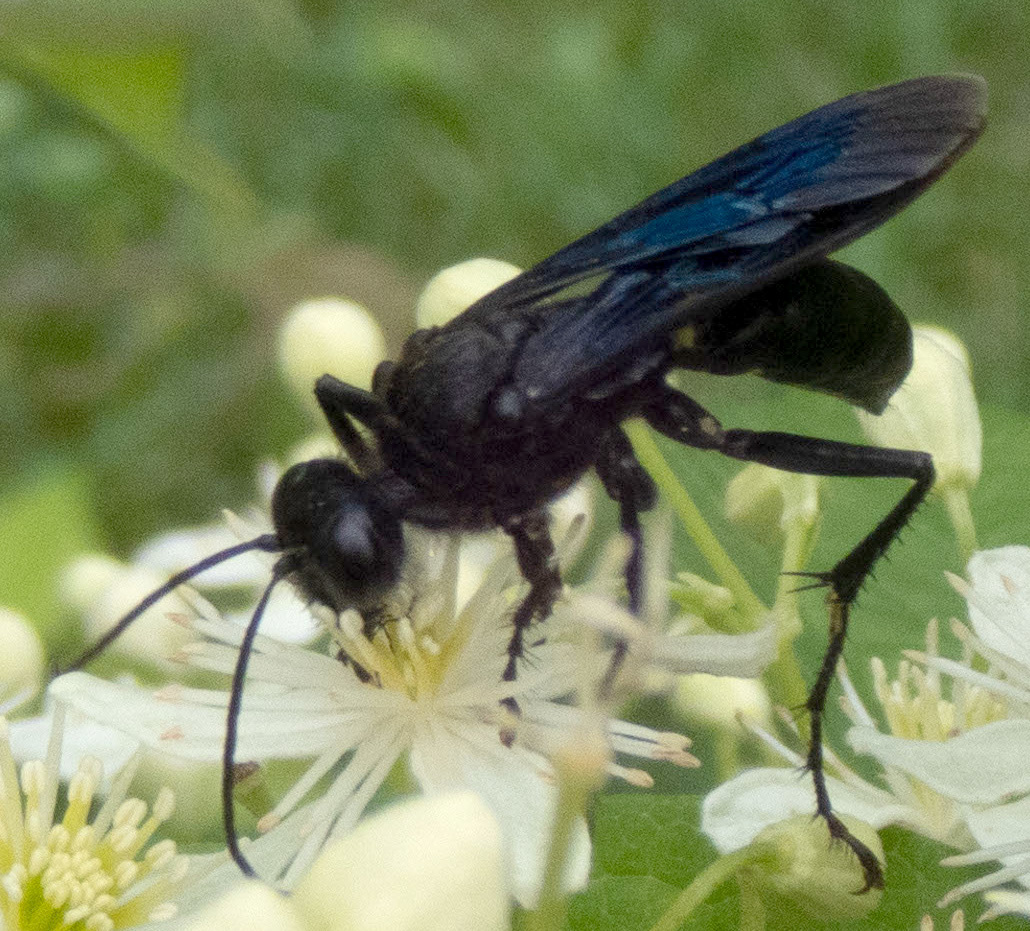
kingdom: Animalia
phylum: Arthropoda
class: Insecta
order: Hymenoptera
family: Sphecidae
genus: Sphex
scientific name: Sphex pensylvanicus
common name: Great black digger wasp
